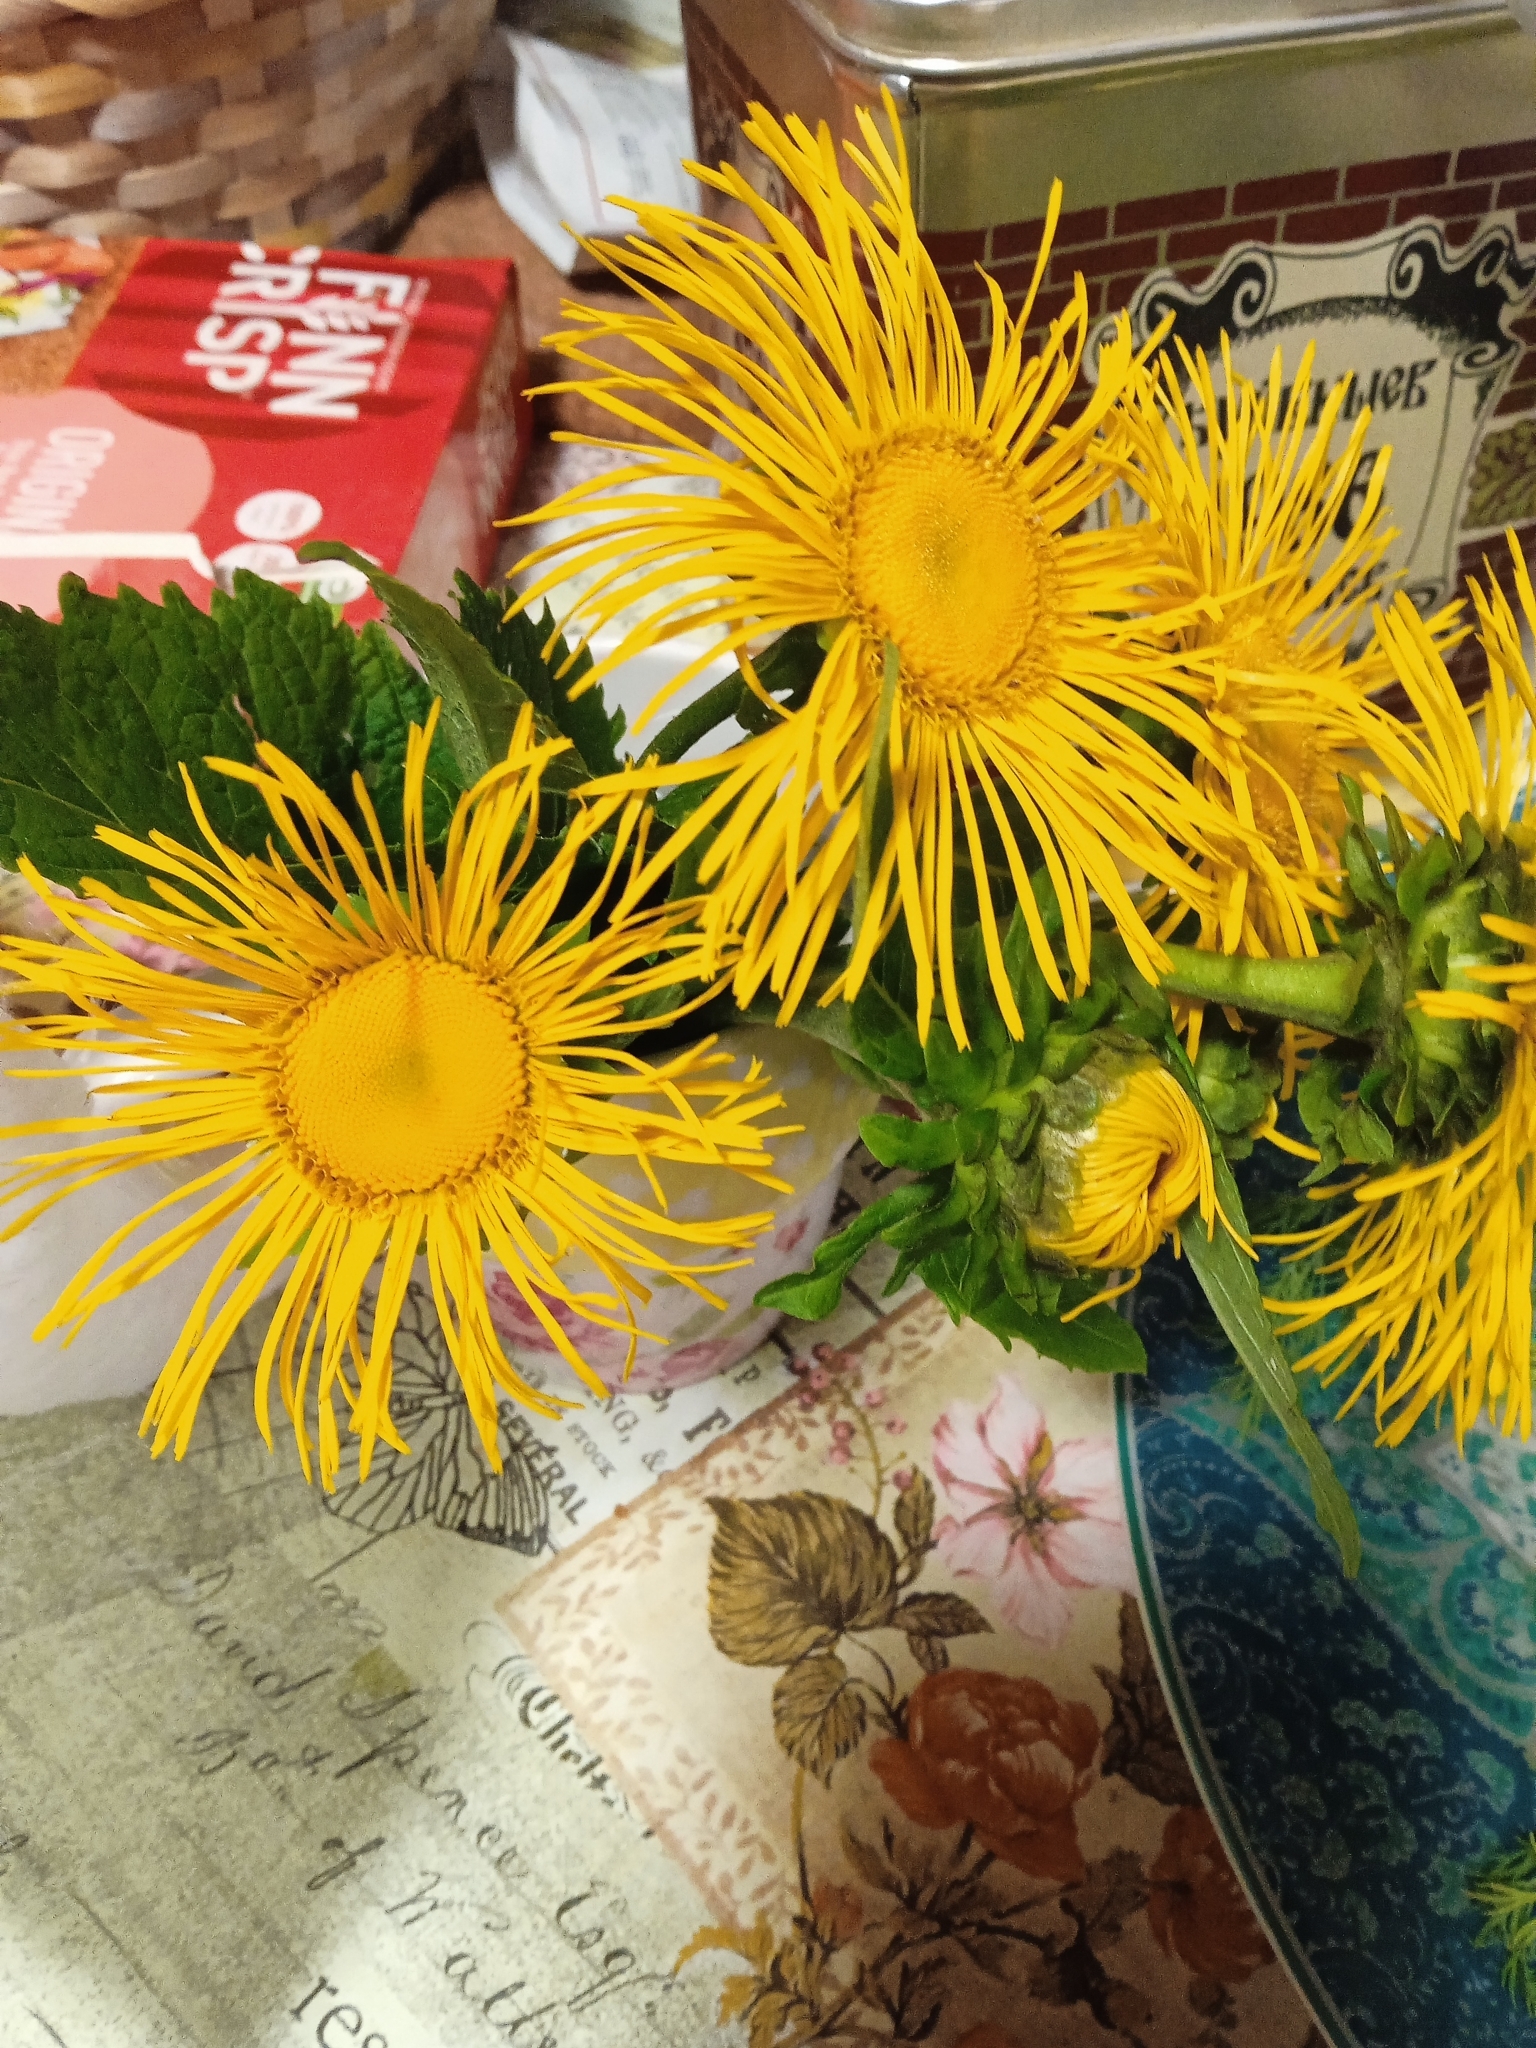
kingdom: Plantae
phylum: Tracheophyta
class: Magnoliopsida
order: Asterales
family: Asteraceae
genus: Telekia
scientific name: Telekia speciosa
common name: Yellow oxeye
